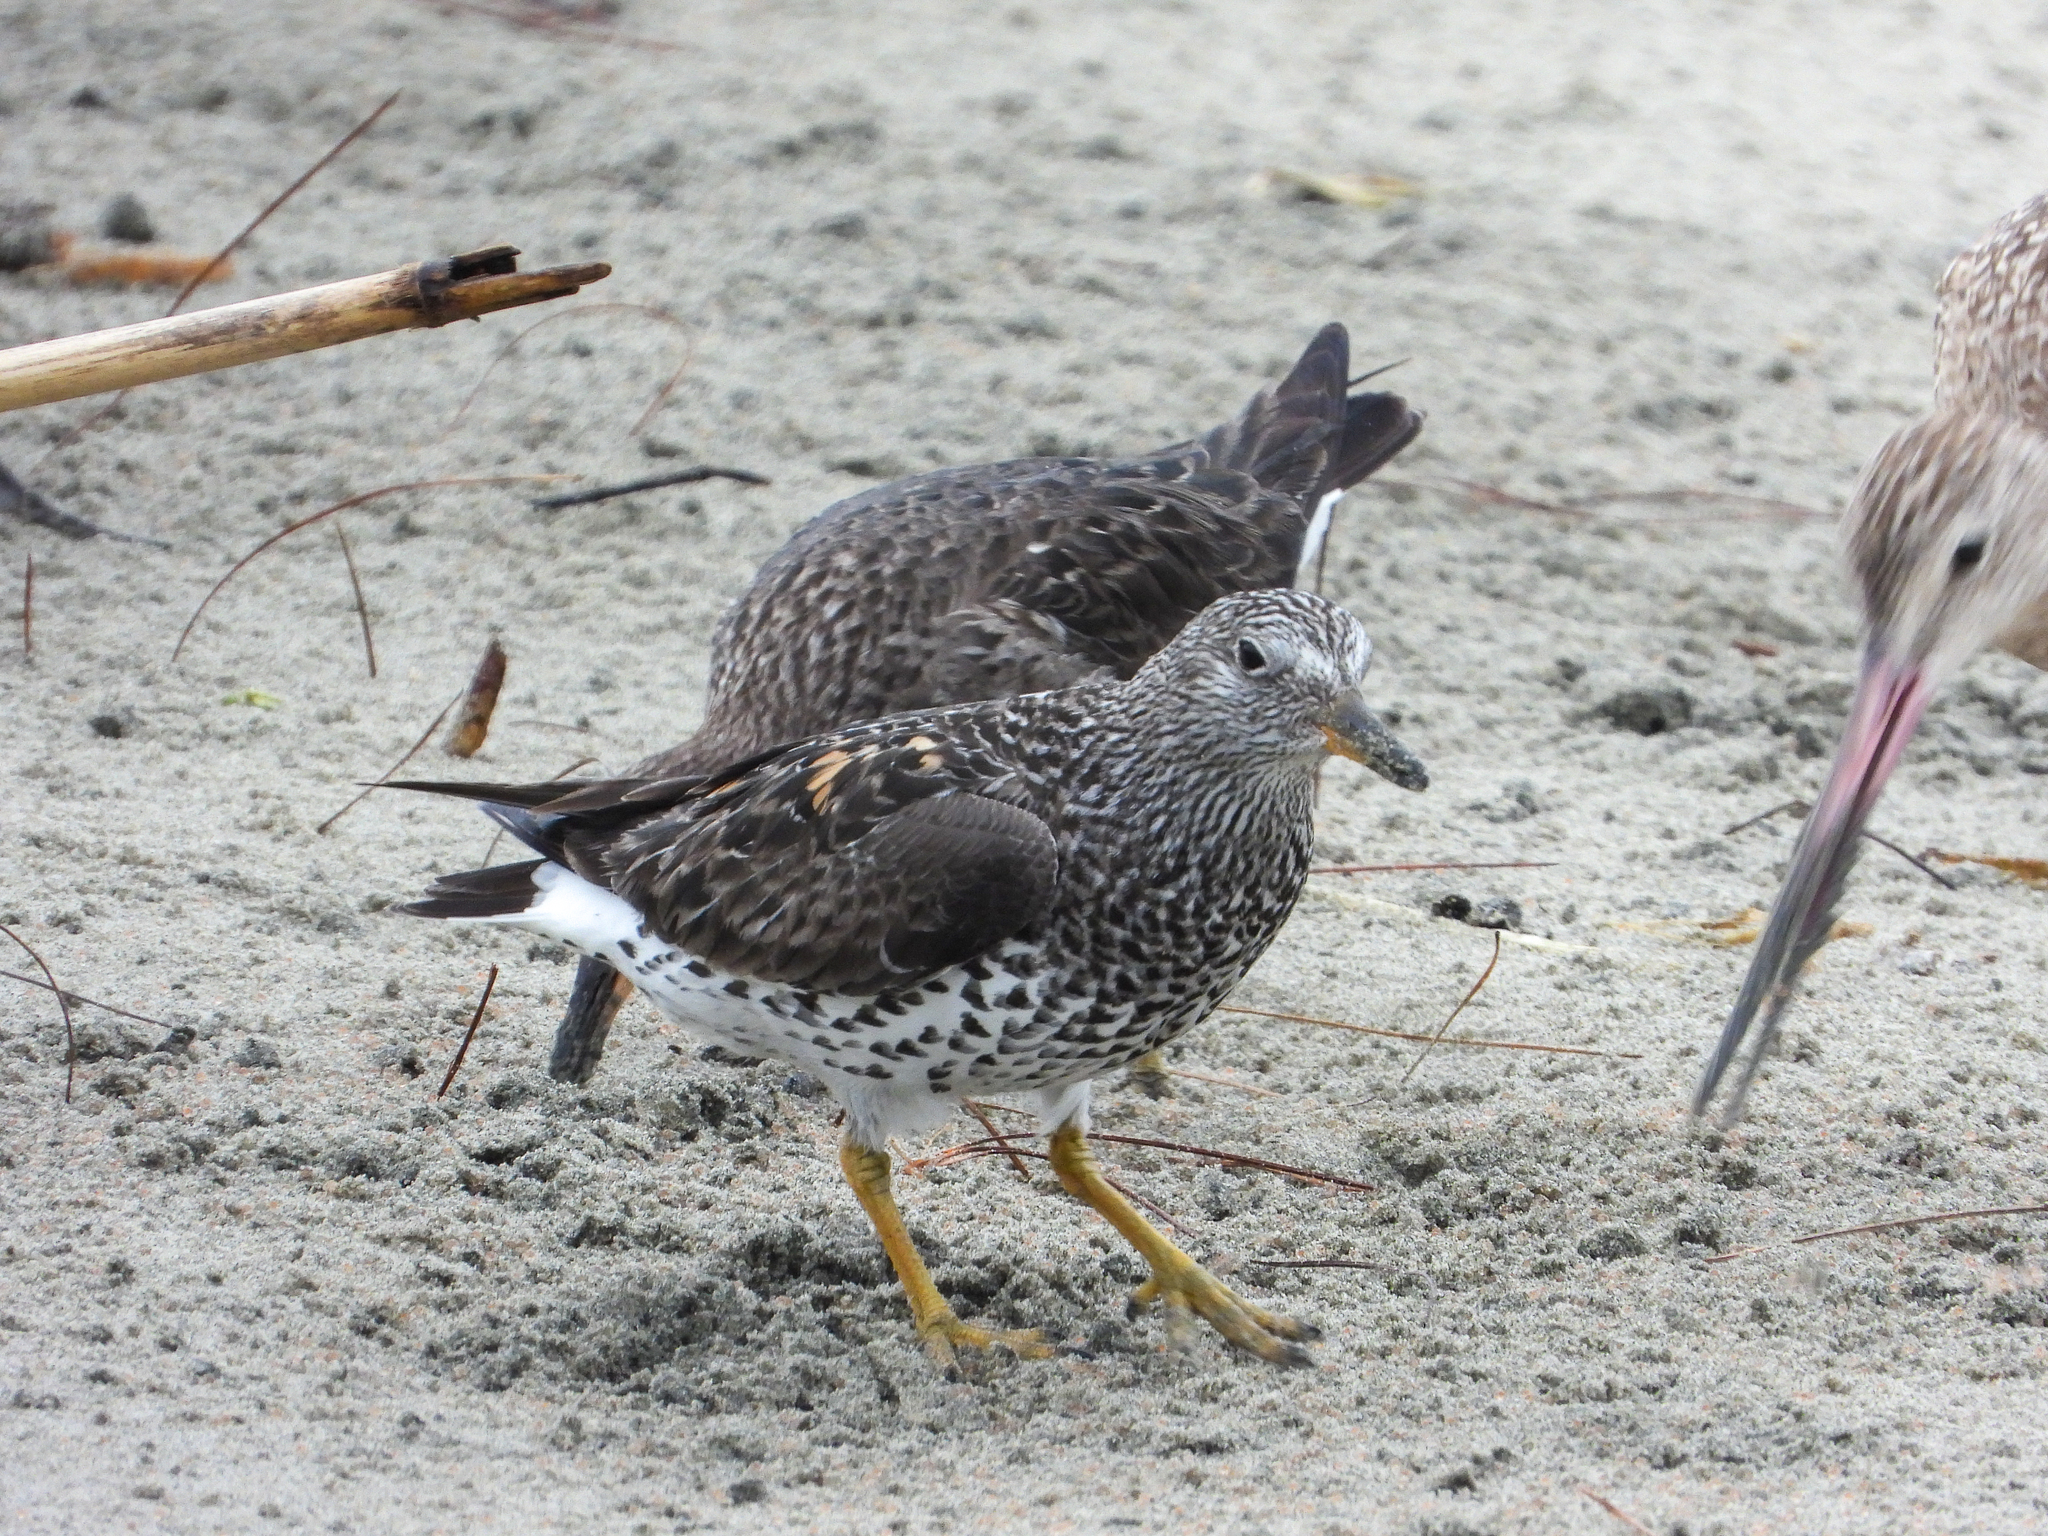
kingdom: Animalia
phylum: Chordata
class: Aves
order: Charadriiformes
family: Scolopacidae
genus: Calidris
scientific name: Calidris virgata
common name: Surfbird
